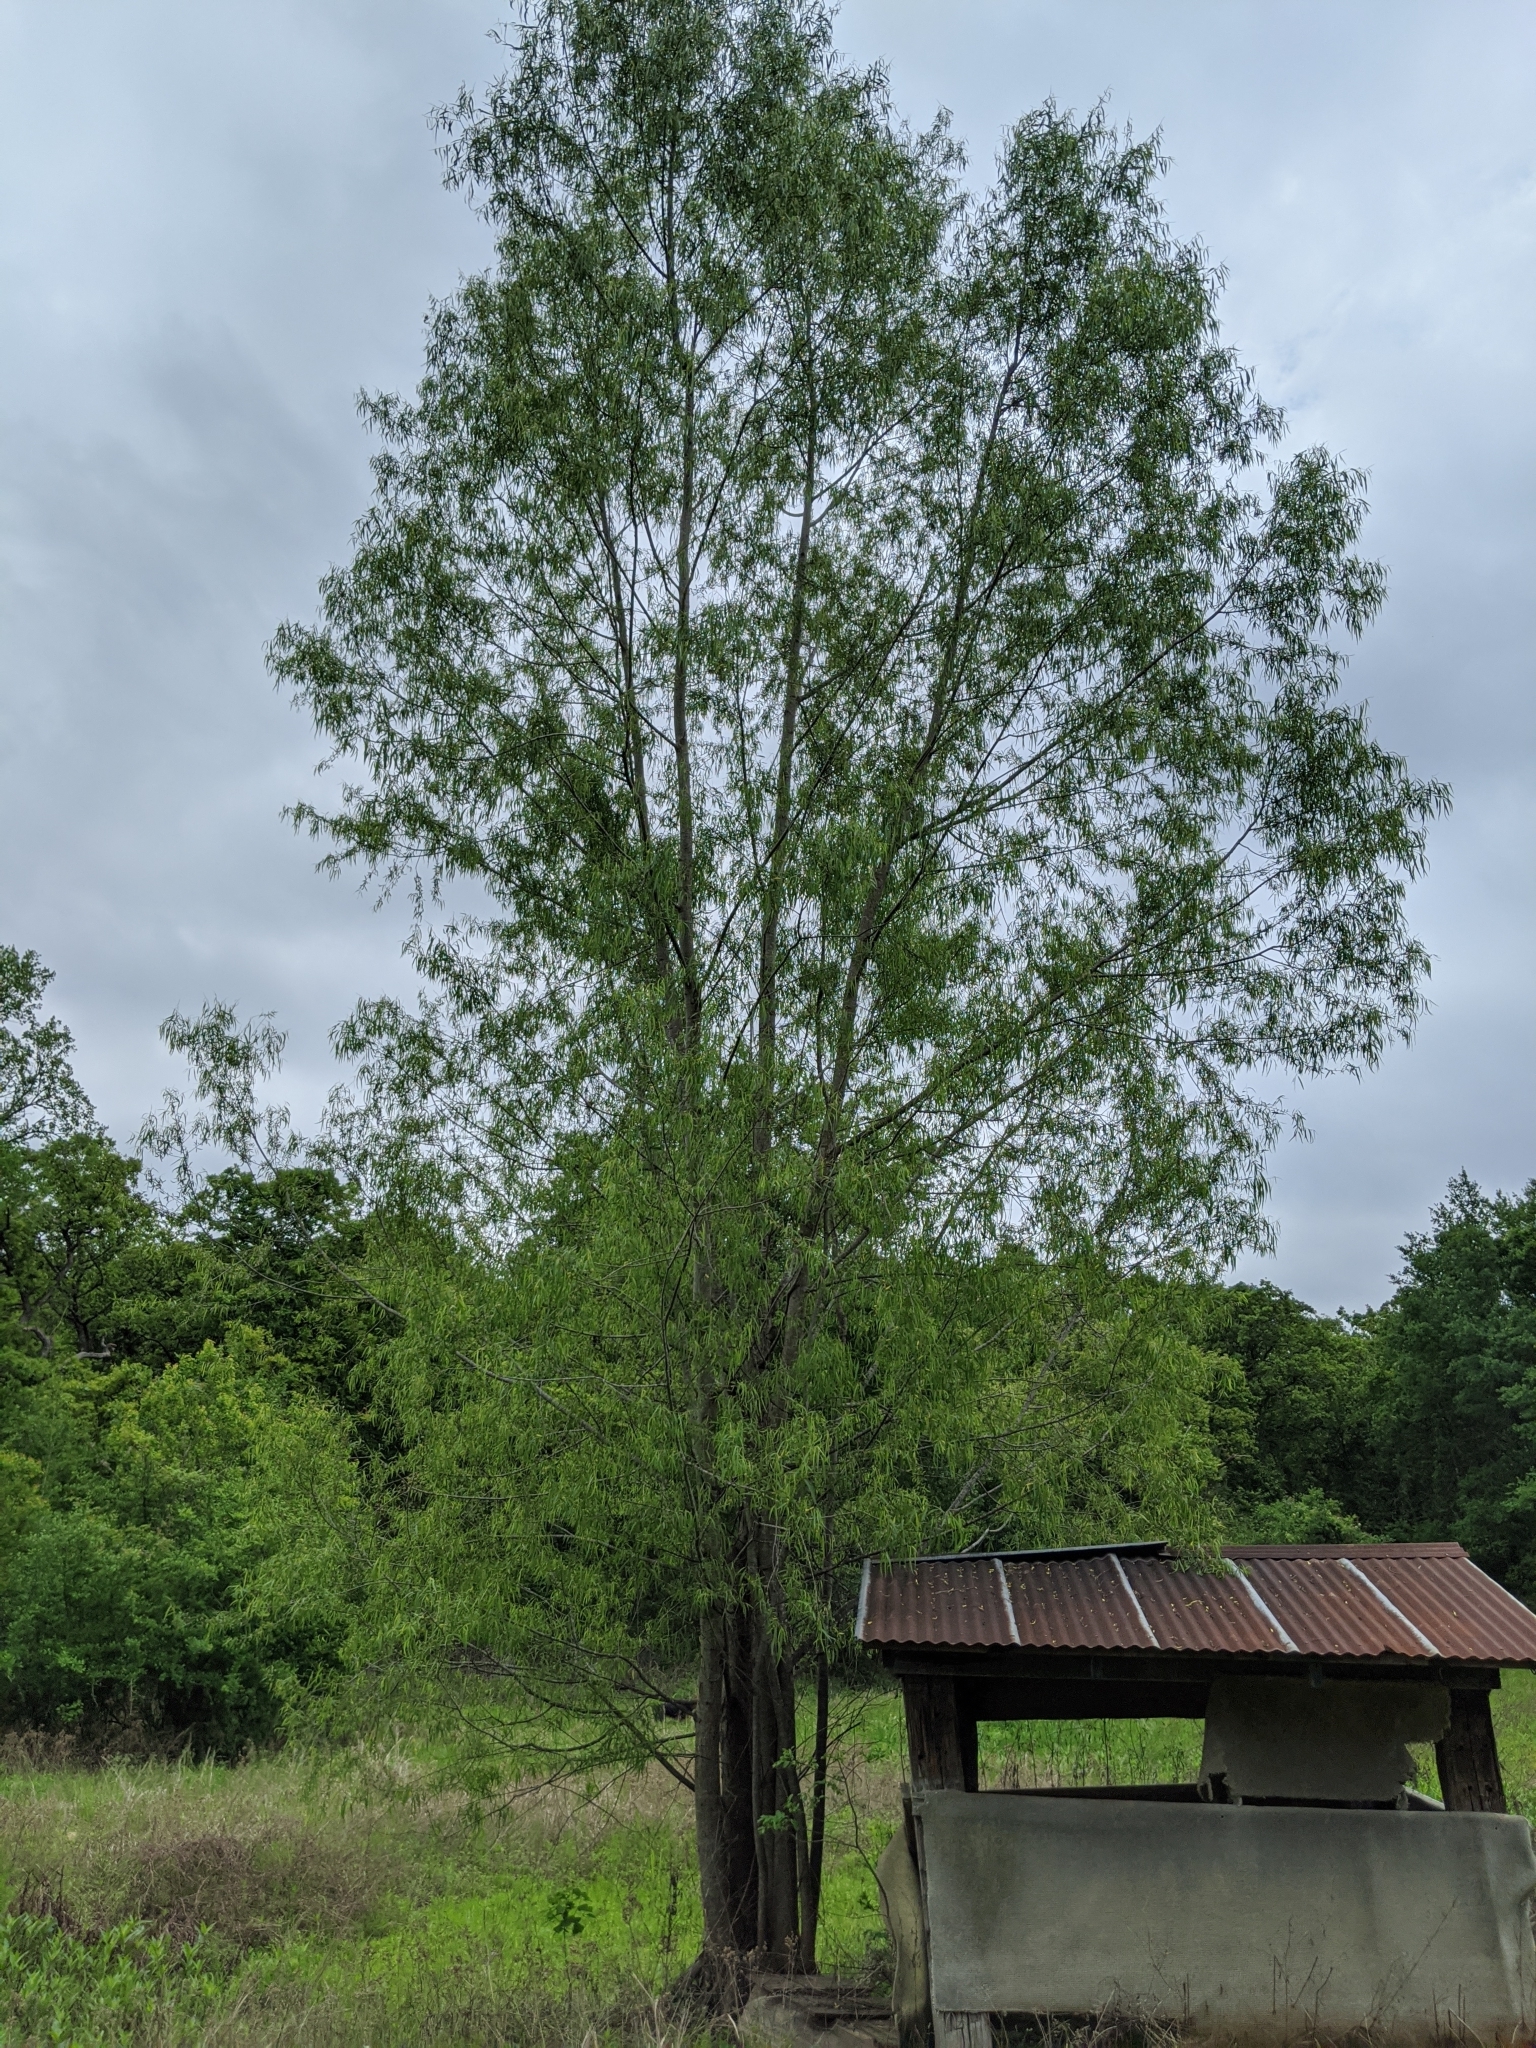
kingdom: Plantae
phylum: Tracheophyta
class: Magnoliopsida
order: Malpighiales
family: Salicaceae
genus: Salix
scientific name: Salix nigra
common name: Black willow
